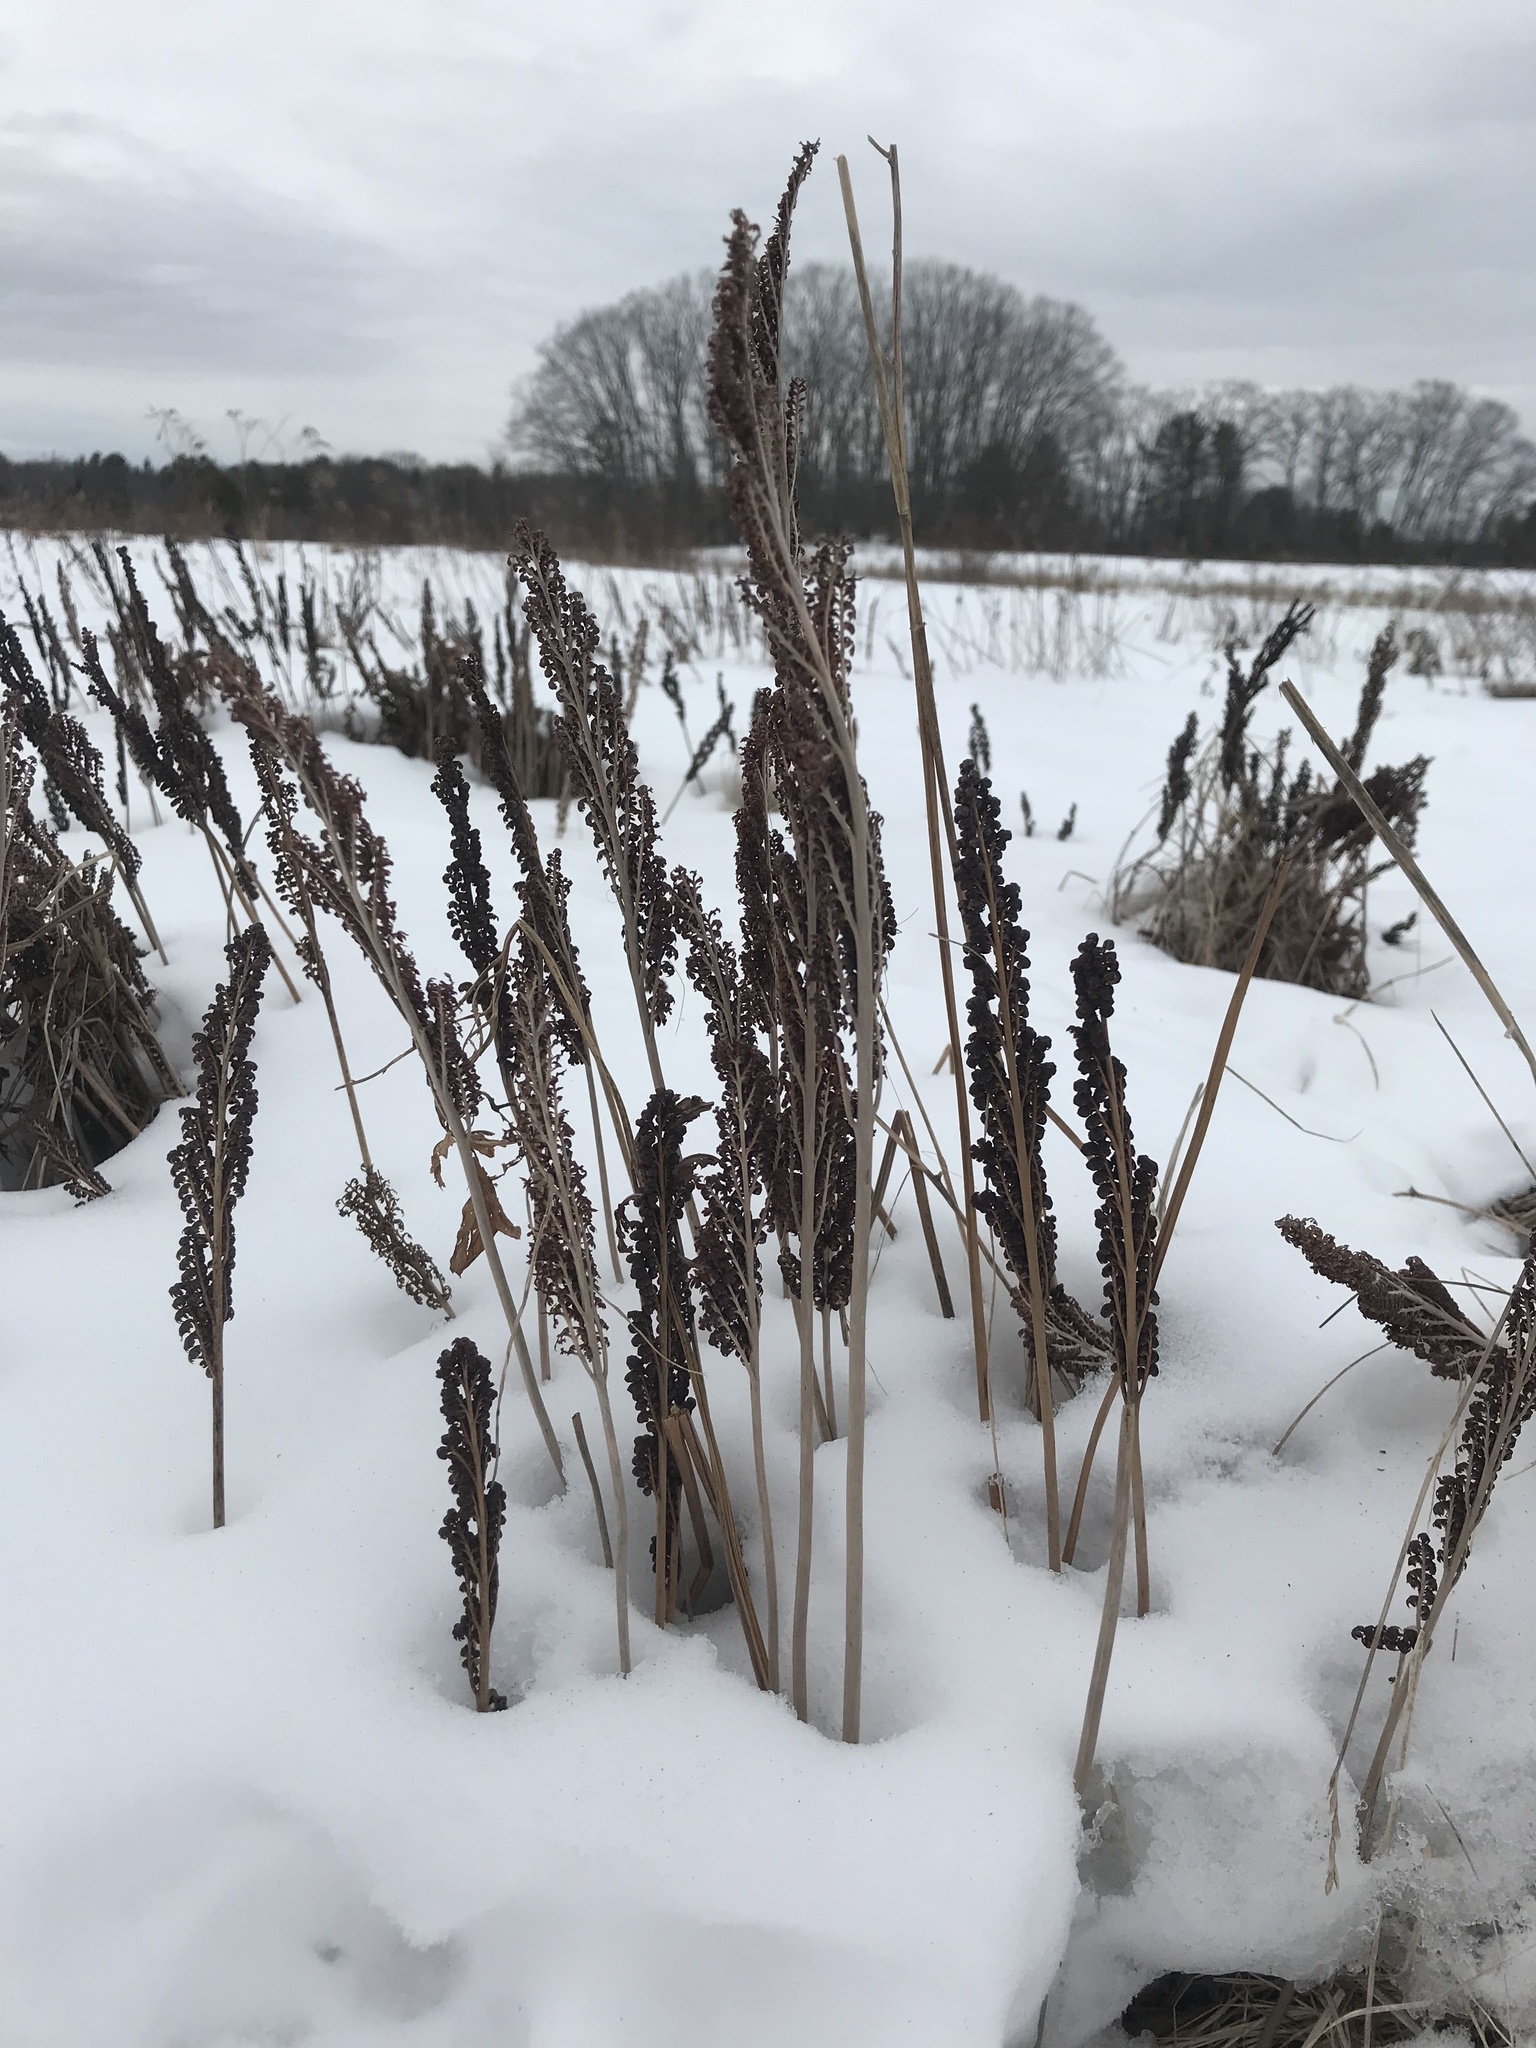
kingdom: Plantae
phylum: Tracheophyta
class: Polypodiopsida
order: Polypodiales
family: Onocleaceae
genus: Onoclea
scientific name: Onoclea sensibilis
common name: Sensitive fern
